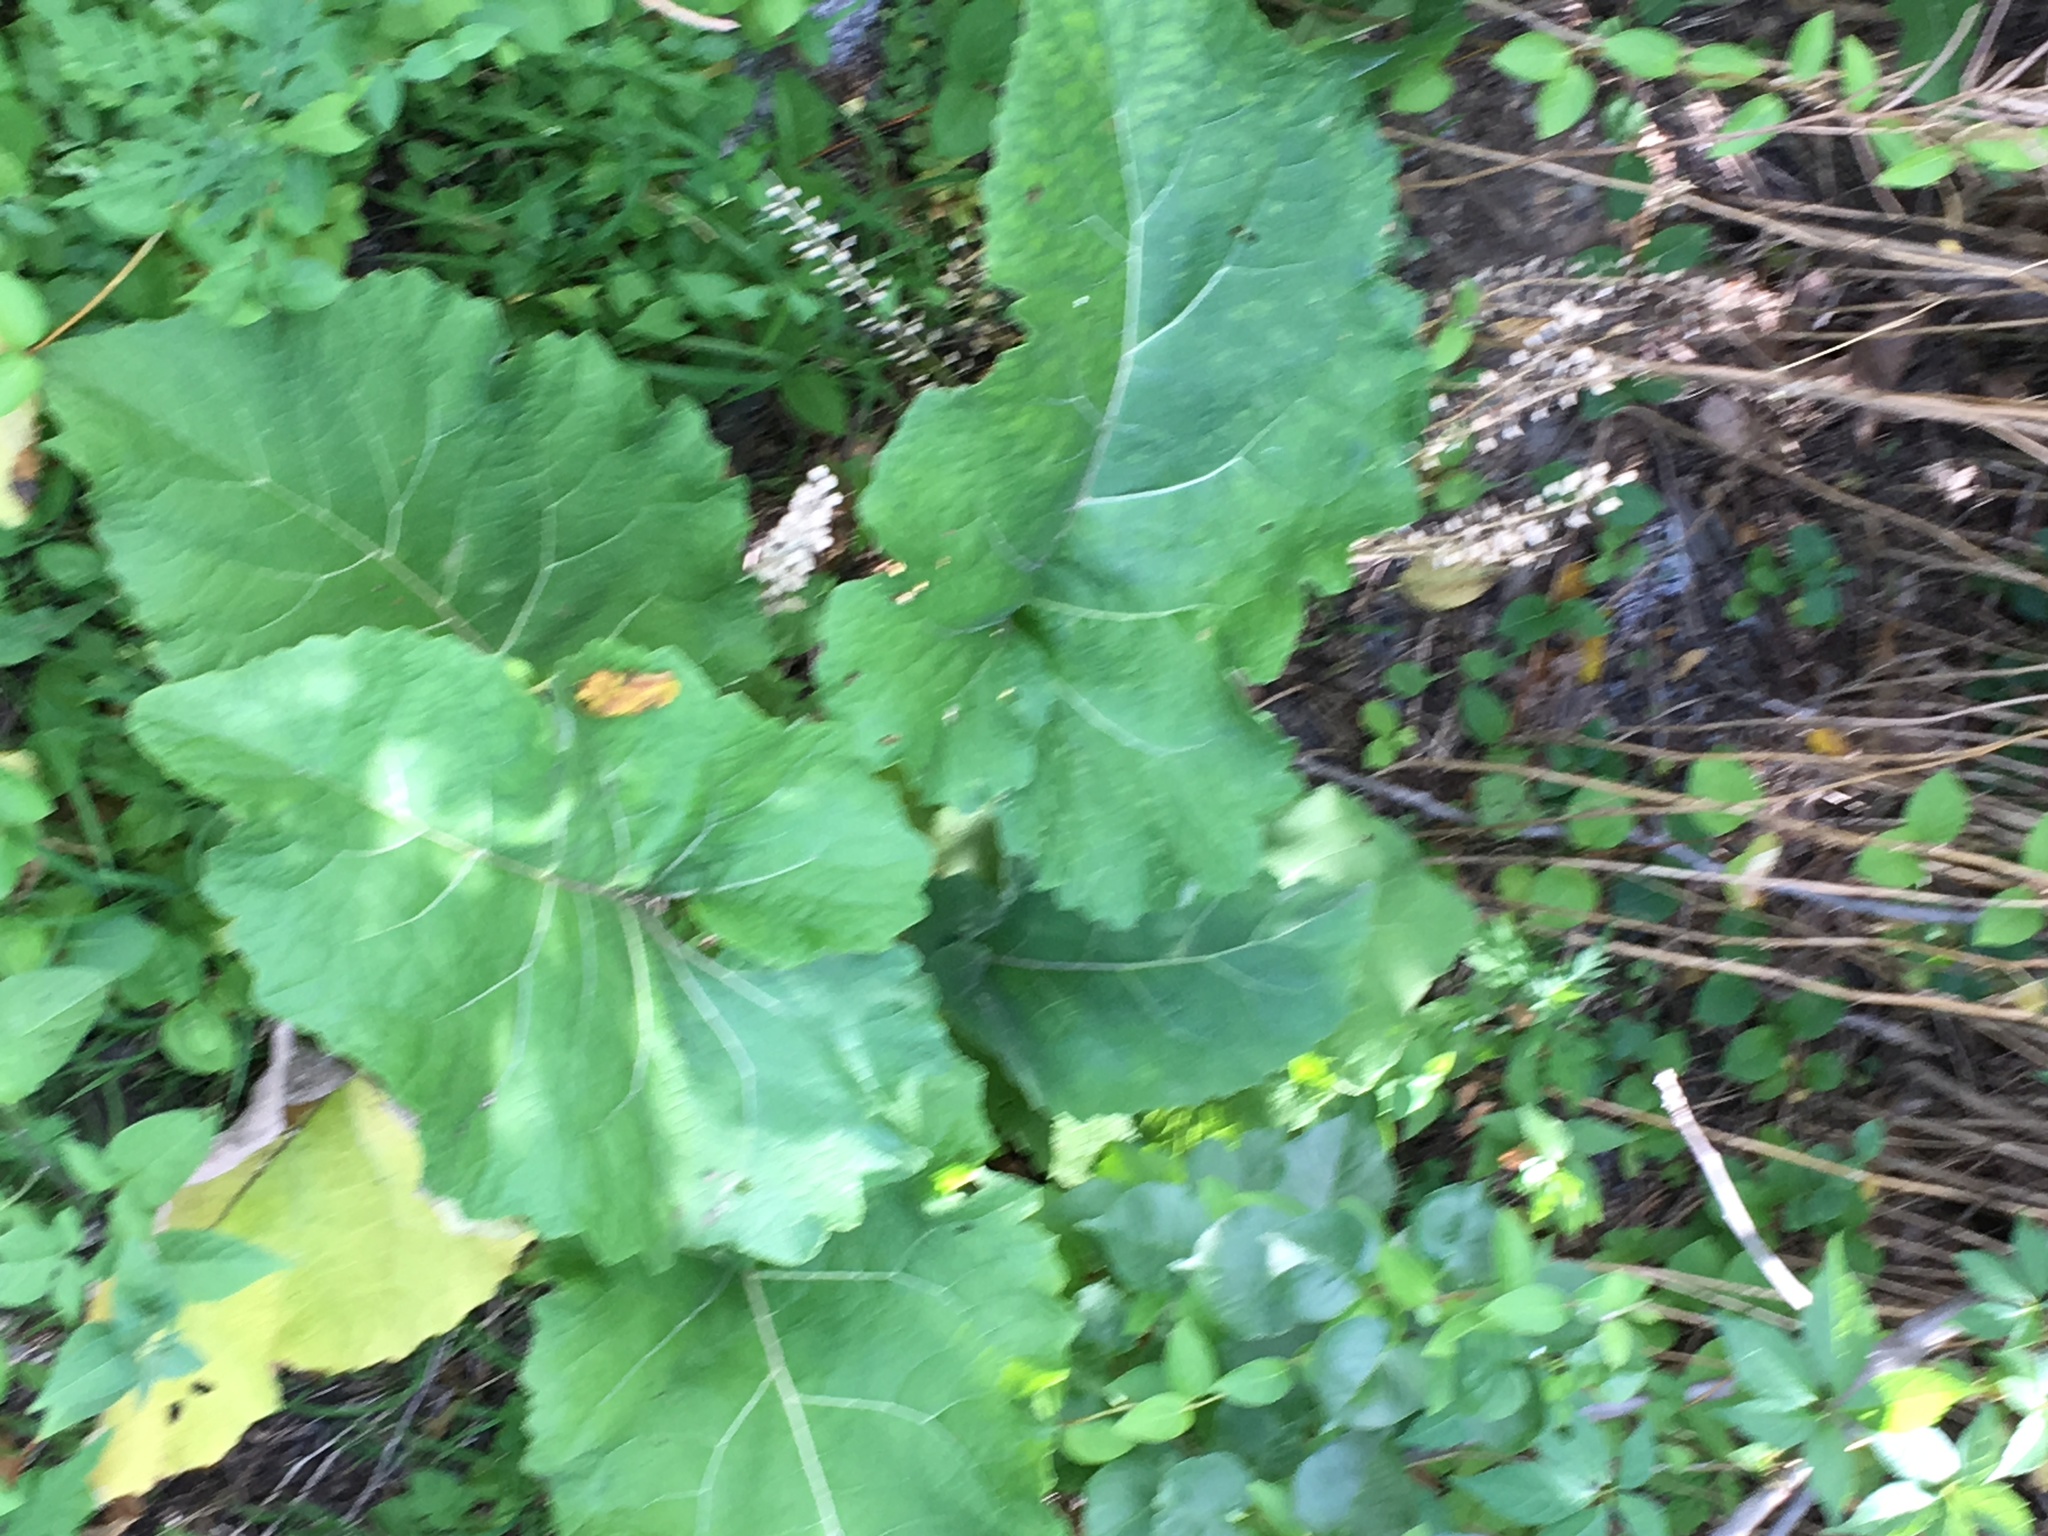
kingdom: Plantae
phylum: Tracheophyta
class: Magnoliopsida
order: Asterales
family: Asteraceae
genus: Arctium
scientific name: Arctium
